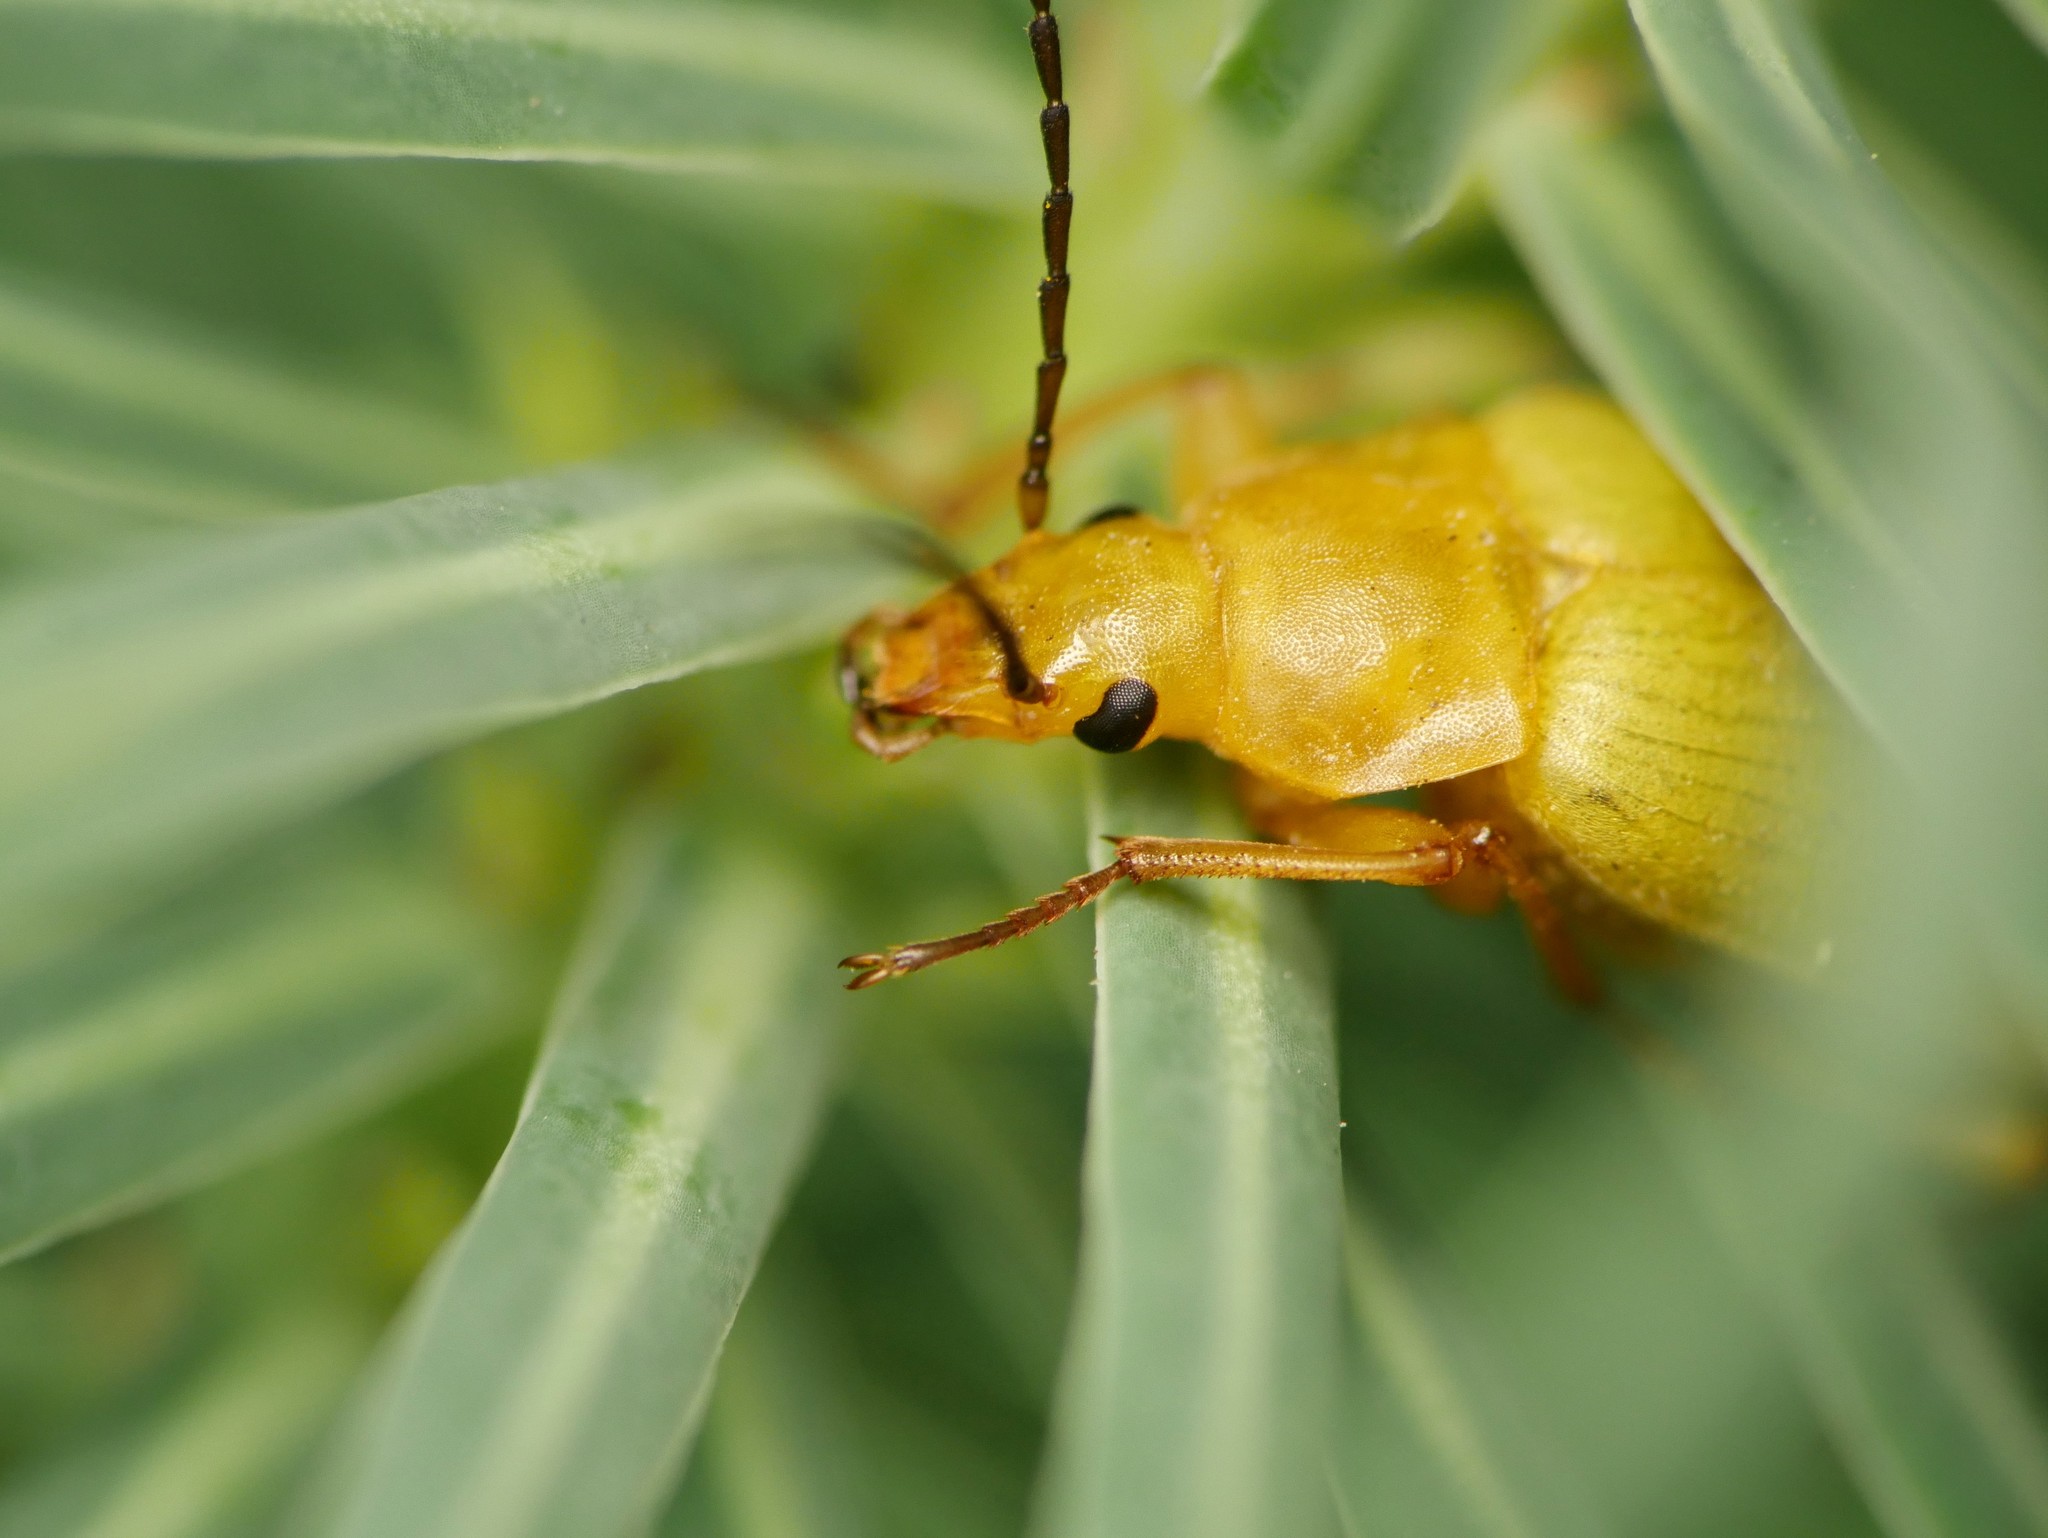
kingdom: Animalia
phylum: Arthropoda
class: Insecta
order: Coleoptera
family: Tenebrionidae
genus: Cteniopus
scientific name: Cteniopus sulphureus
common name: Sulphur beetle
